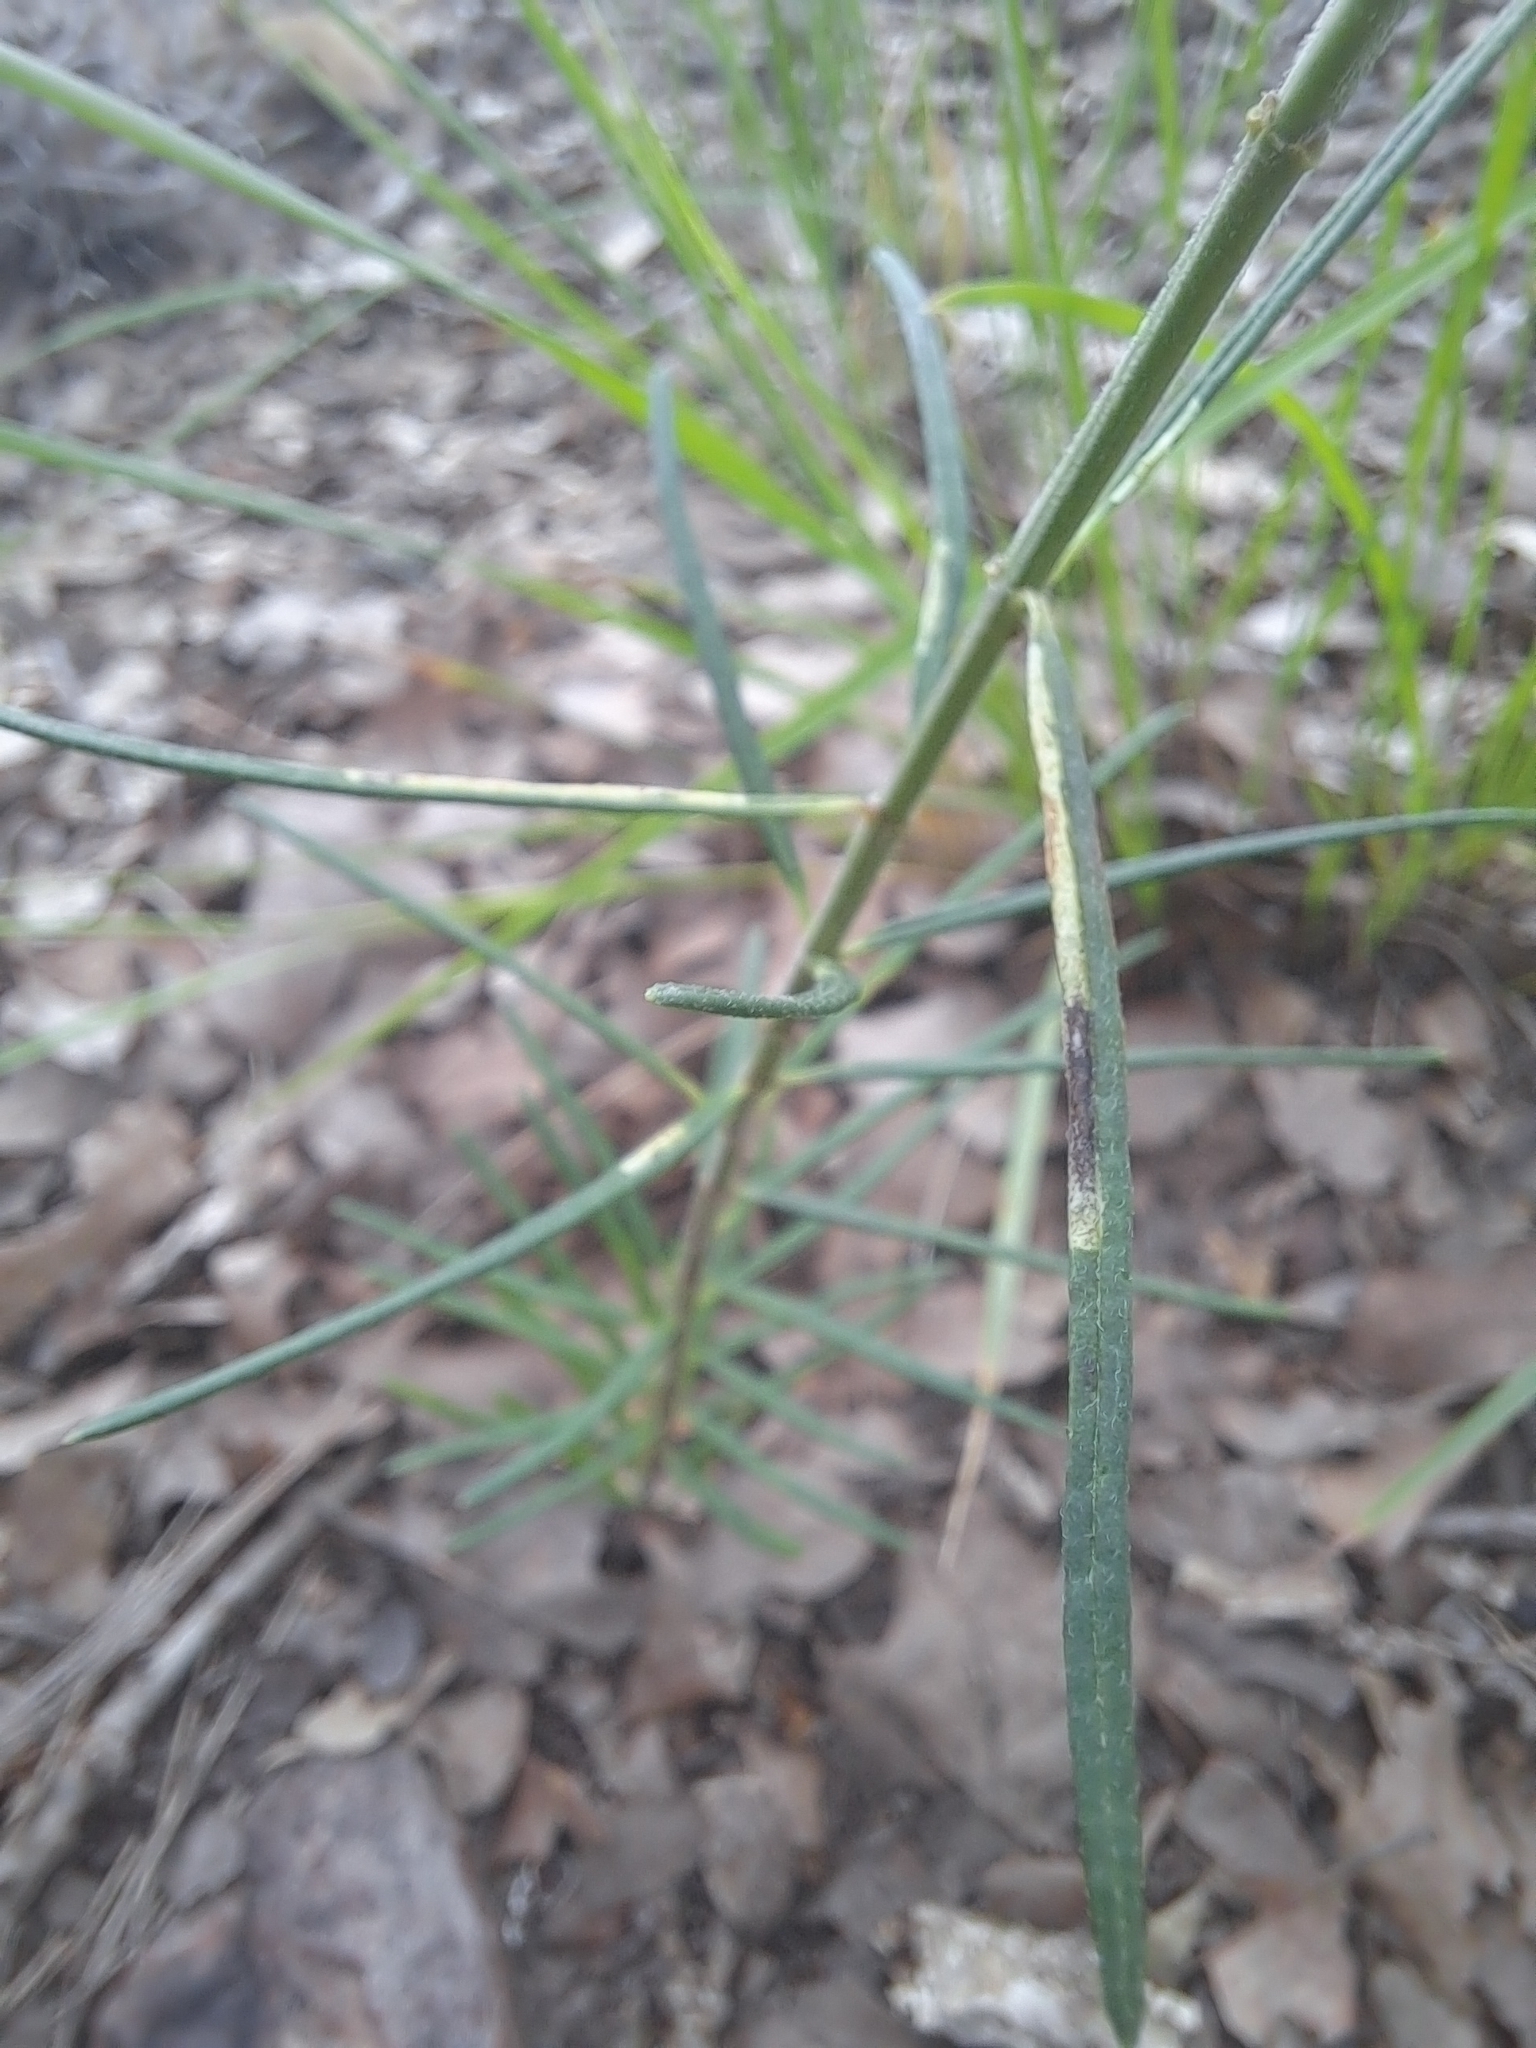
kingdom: Plantae
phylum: Tracheophyta
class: Magnoliopsida
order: Gentianales
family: Apocynaceae
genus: Asclepias
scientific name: Asclepias verticillata
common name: Eastern whorled milkweed
